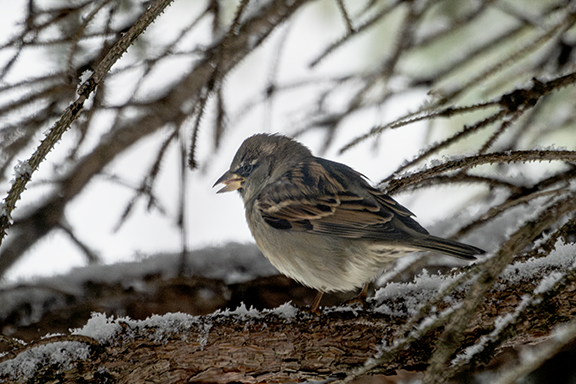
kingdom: Animalia
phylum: Chordata
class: Aves
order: Passeriformes
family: Passeridae
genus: Passer
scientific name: Passer domesticus
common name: House sparrow
